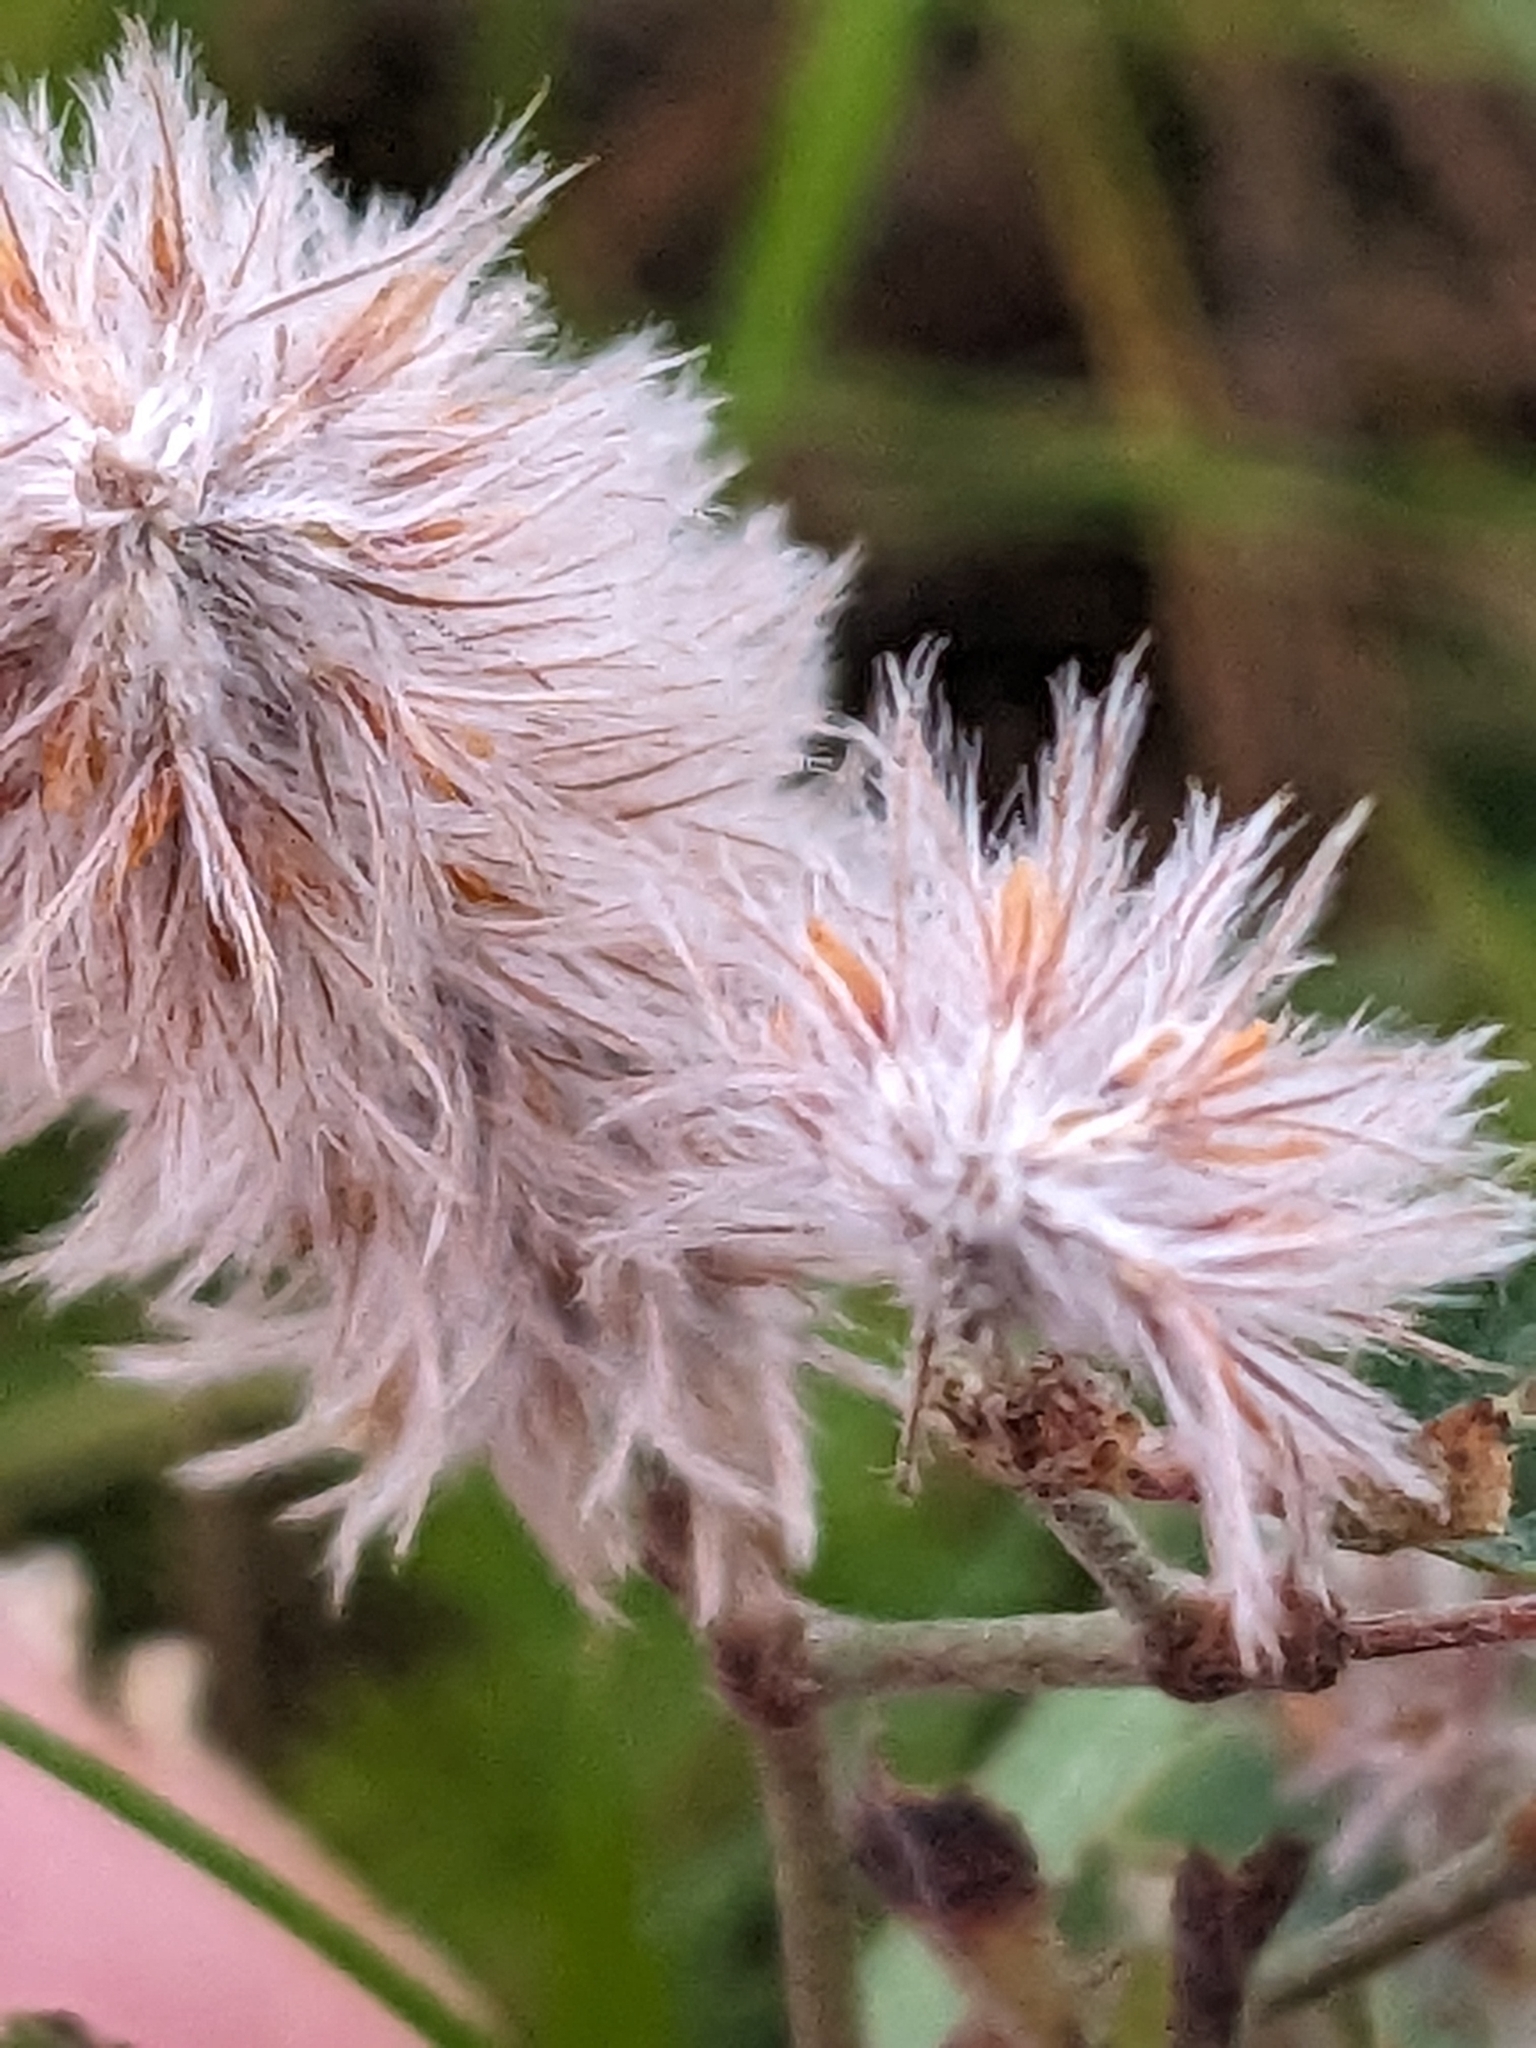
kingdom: Plantae
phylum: Tracheophyta
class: Magnoliopsida
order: Fabales
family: Fabaceae
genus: Trifolium
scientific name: Trifolium arvense
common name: Hare's-foot clover
